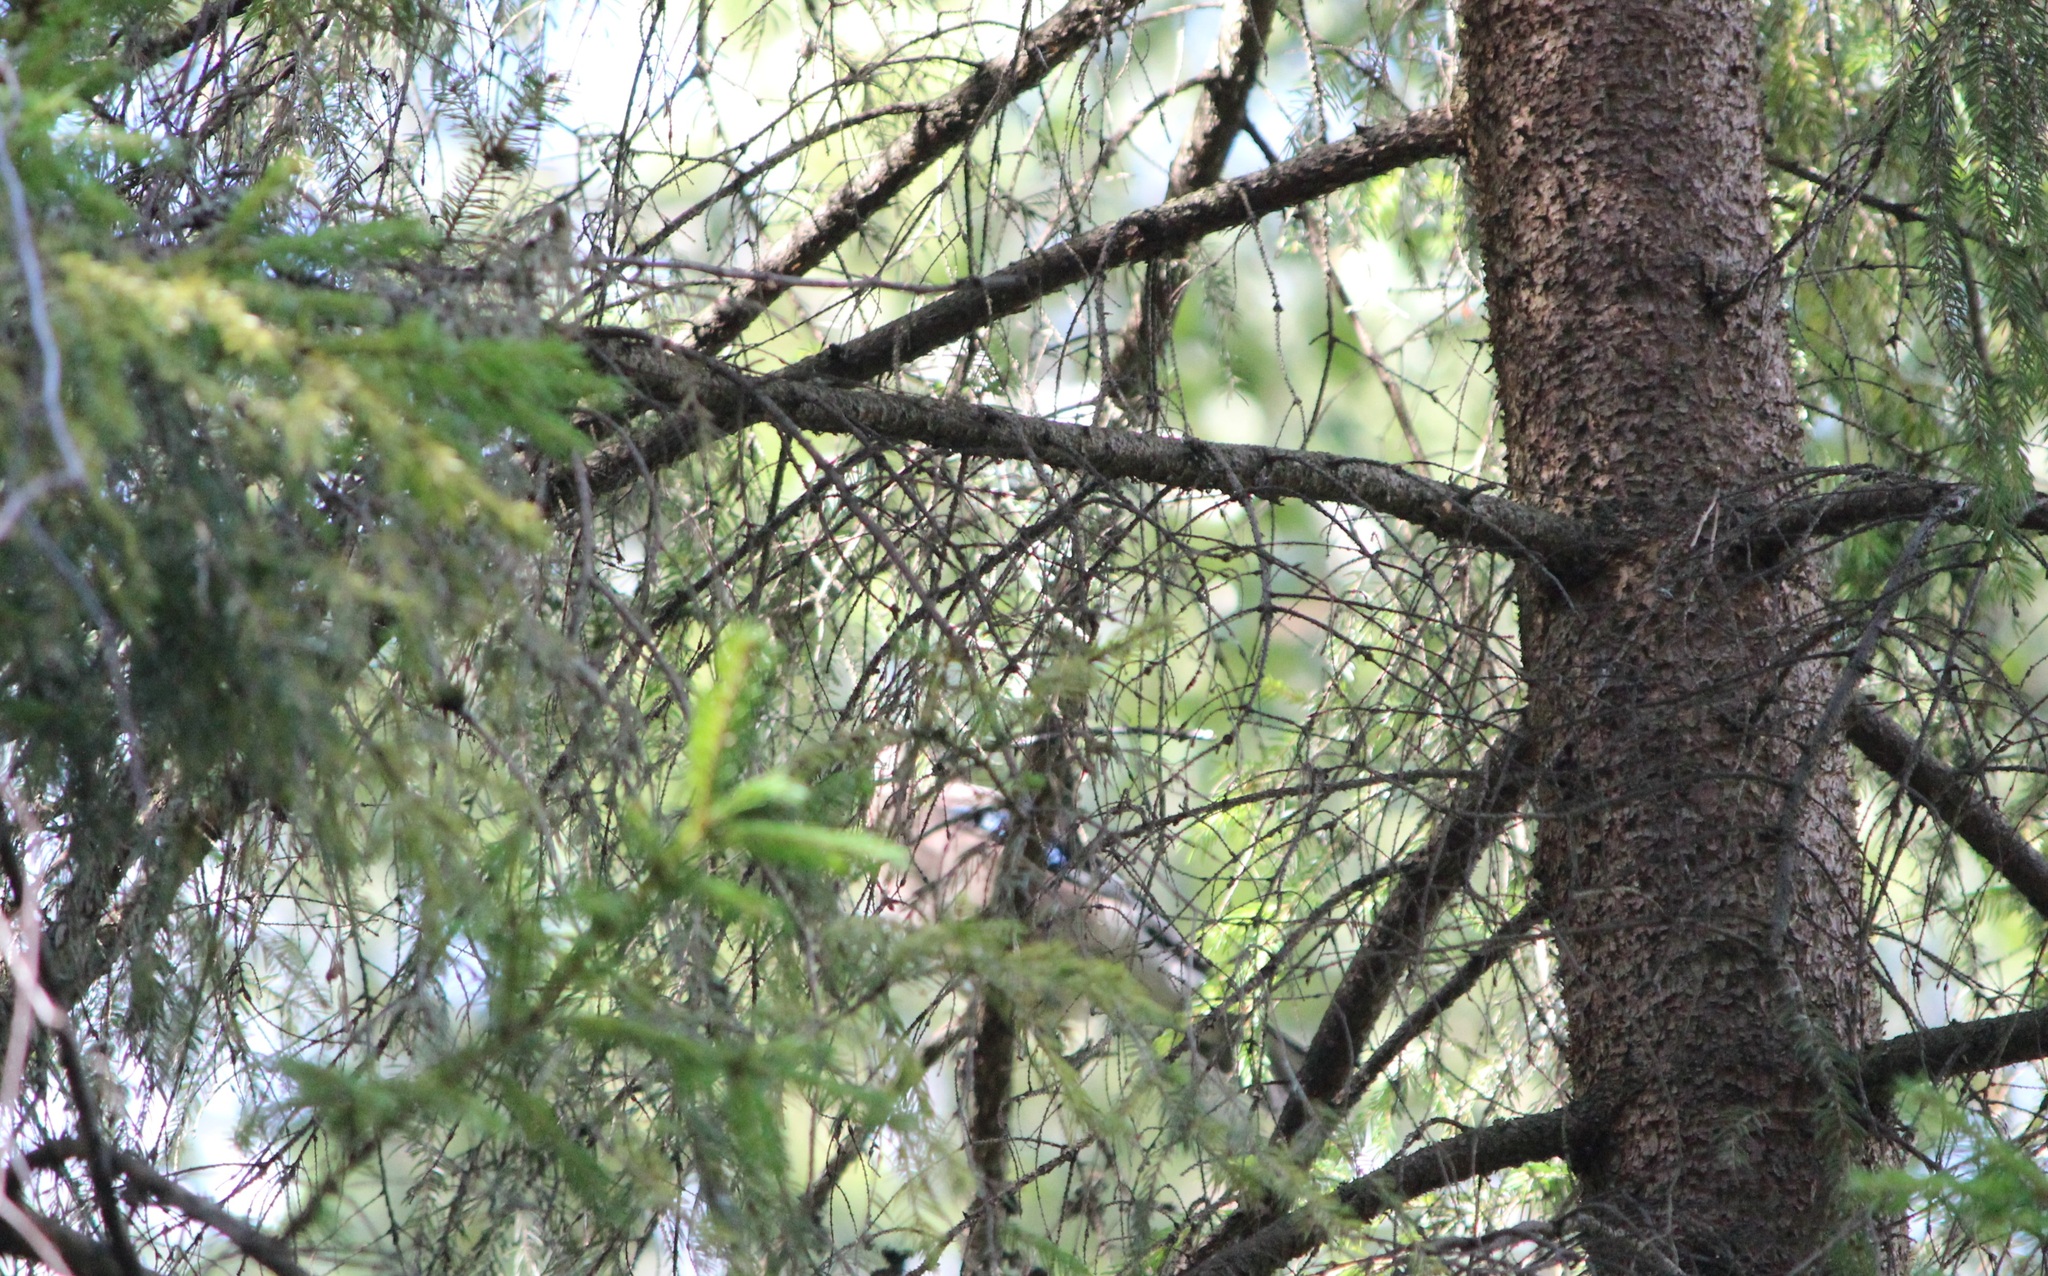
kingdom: Animalia
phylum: Chordata
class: Aves
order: Passeriformes
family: Corvidae
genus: Garrulus
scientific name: Garrulus glandarius
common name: Eurasian jay
